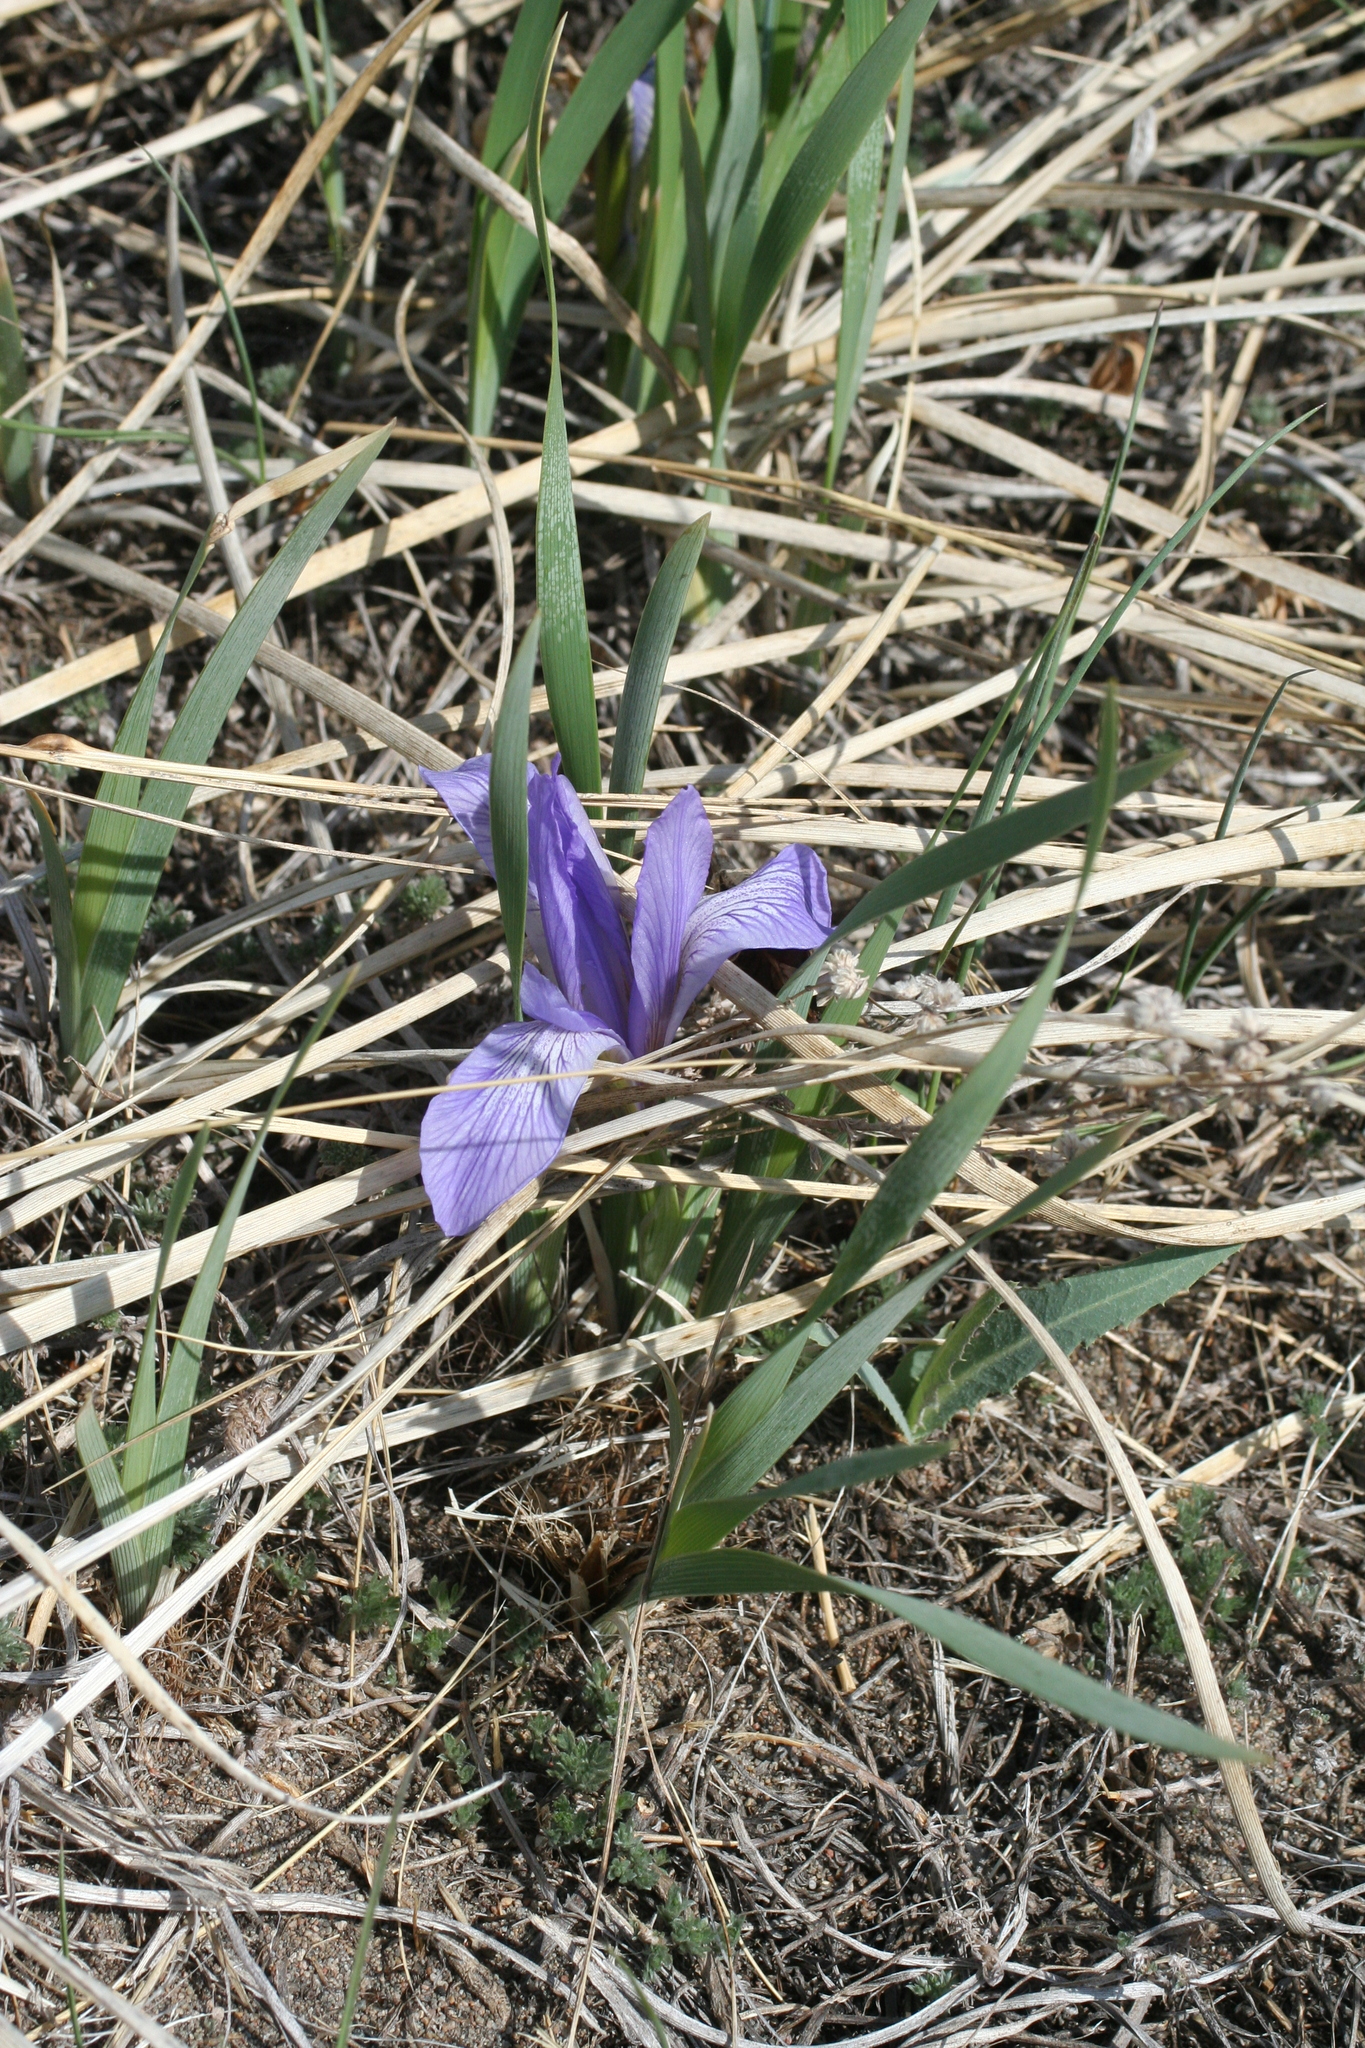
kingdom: Plantae
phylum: Tracheophyta
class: Liliopsida
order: Asparagales
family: Iridaceae
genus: Iris
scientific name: Iris lactea
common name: White-flower chinese iris
